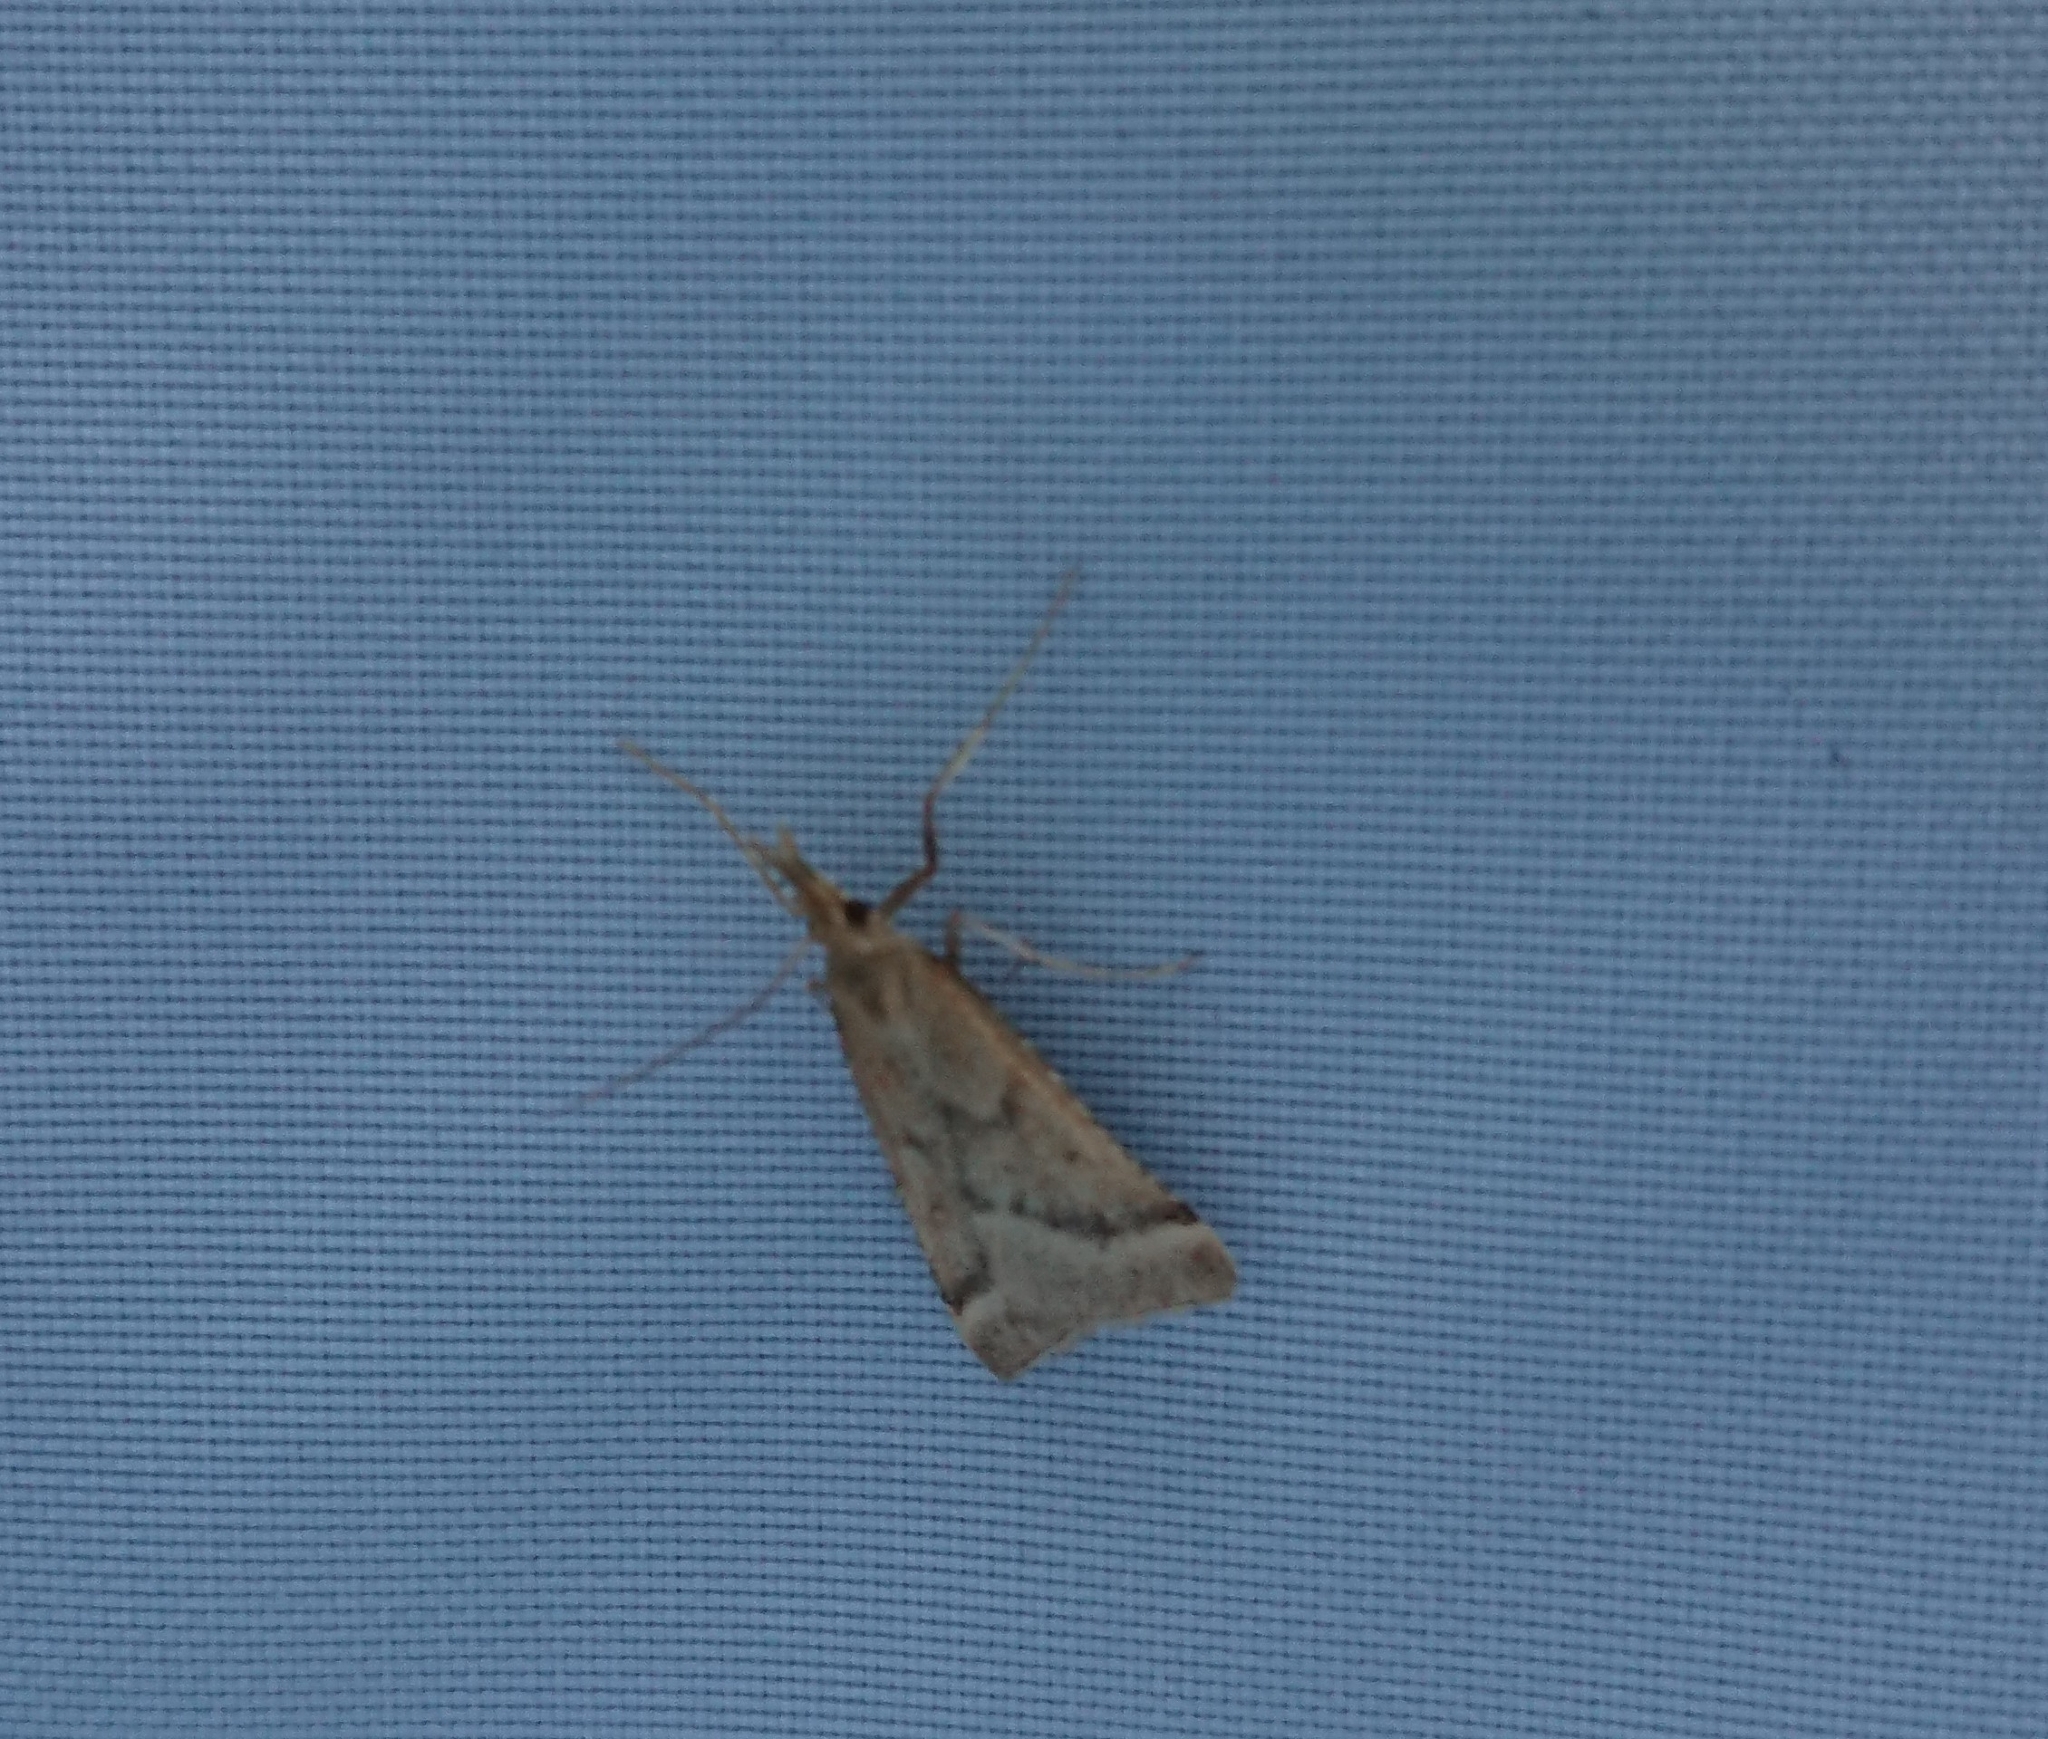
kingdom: Animalia
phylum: Arthropoda
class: Insecta
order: Lepidoptera
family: Pyralidae
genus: Synaphe
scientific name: Synaphe punctalis
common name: Long-legged tabby
